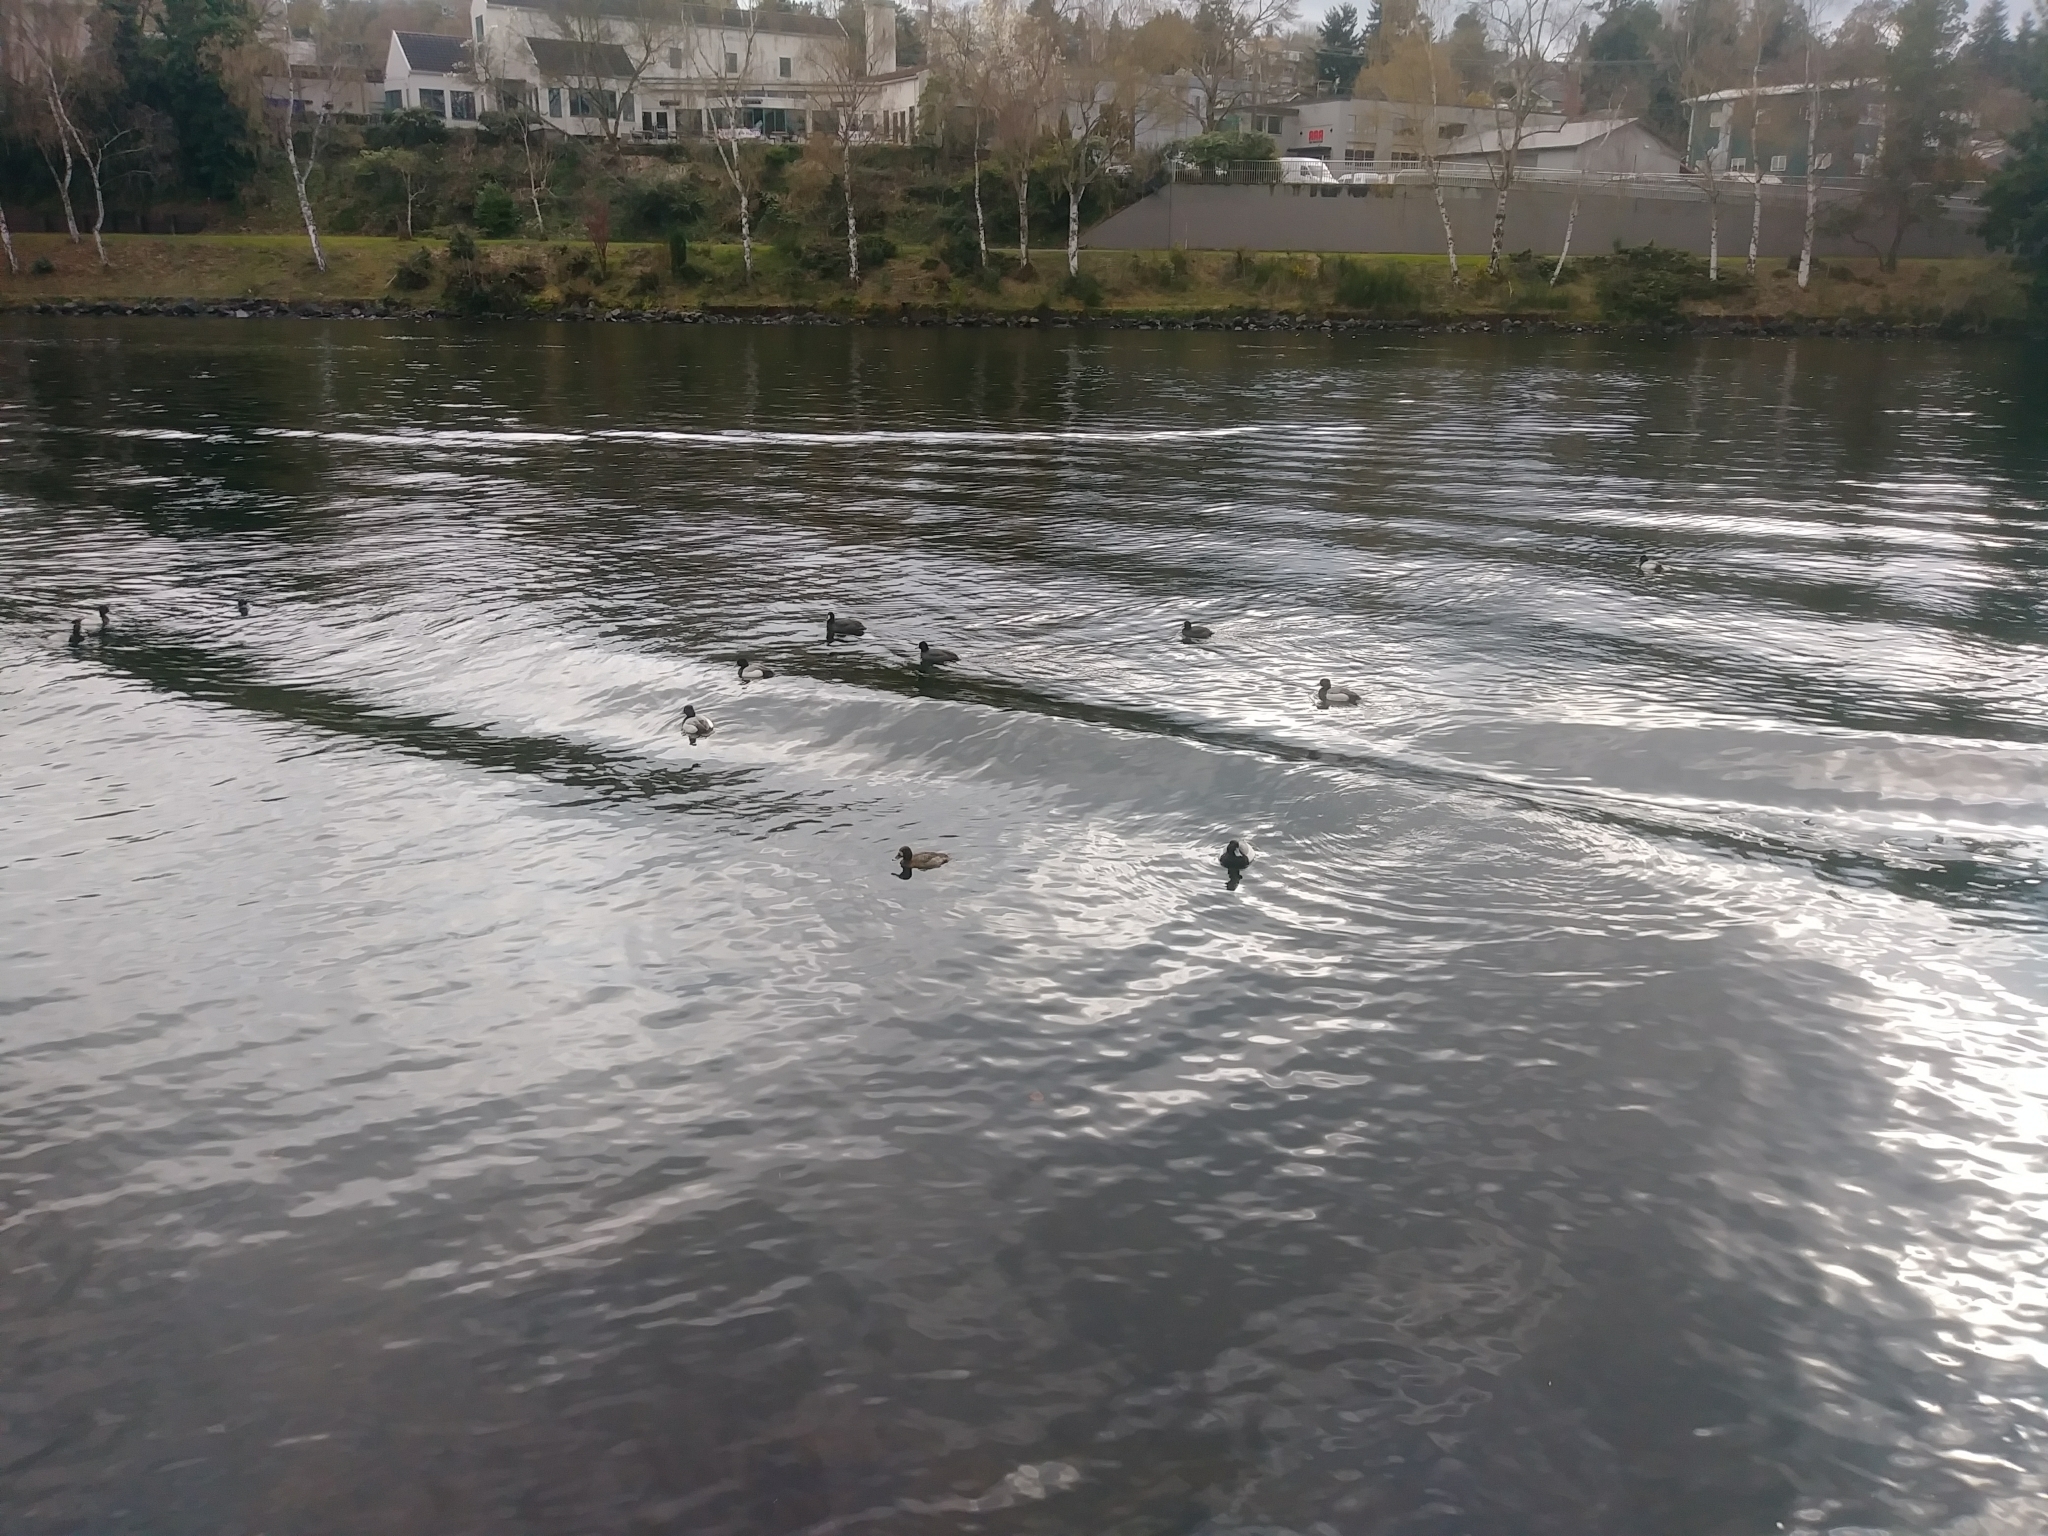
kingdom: Animalia
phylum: Chordata
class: Aves
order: Anseriformes
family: Anatidae
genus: Aythya
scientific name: Aythya affinis
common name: Lesser scaup
